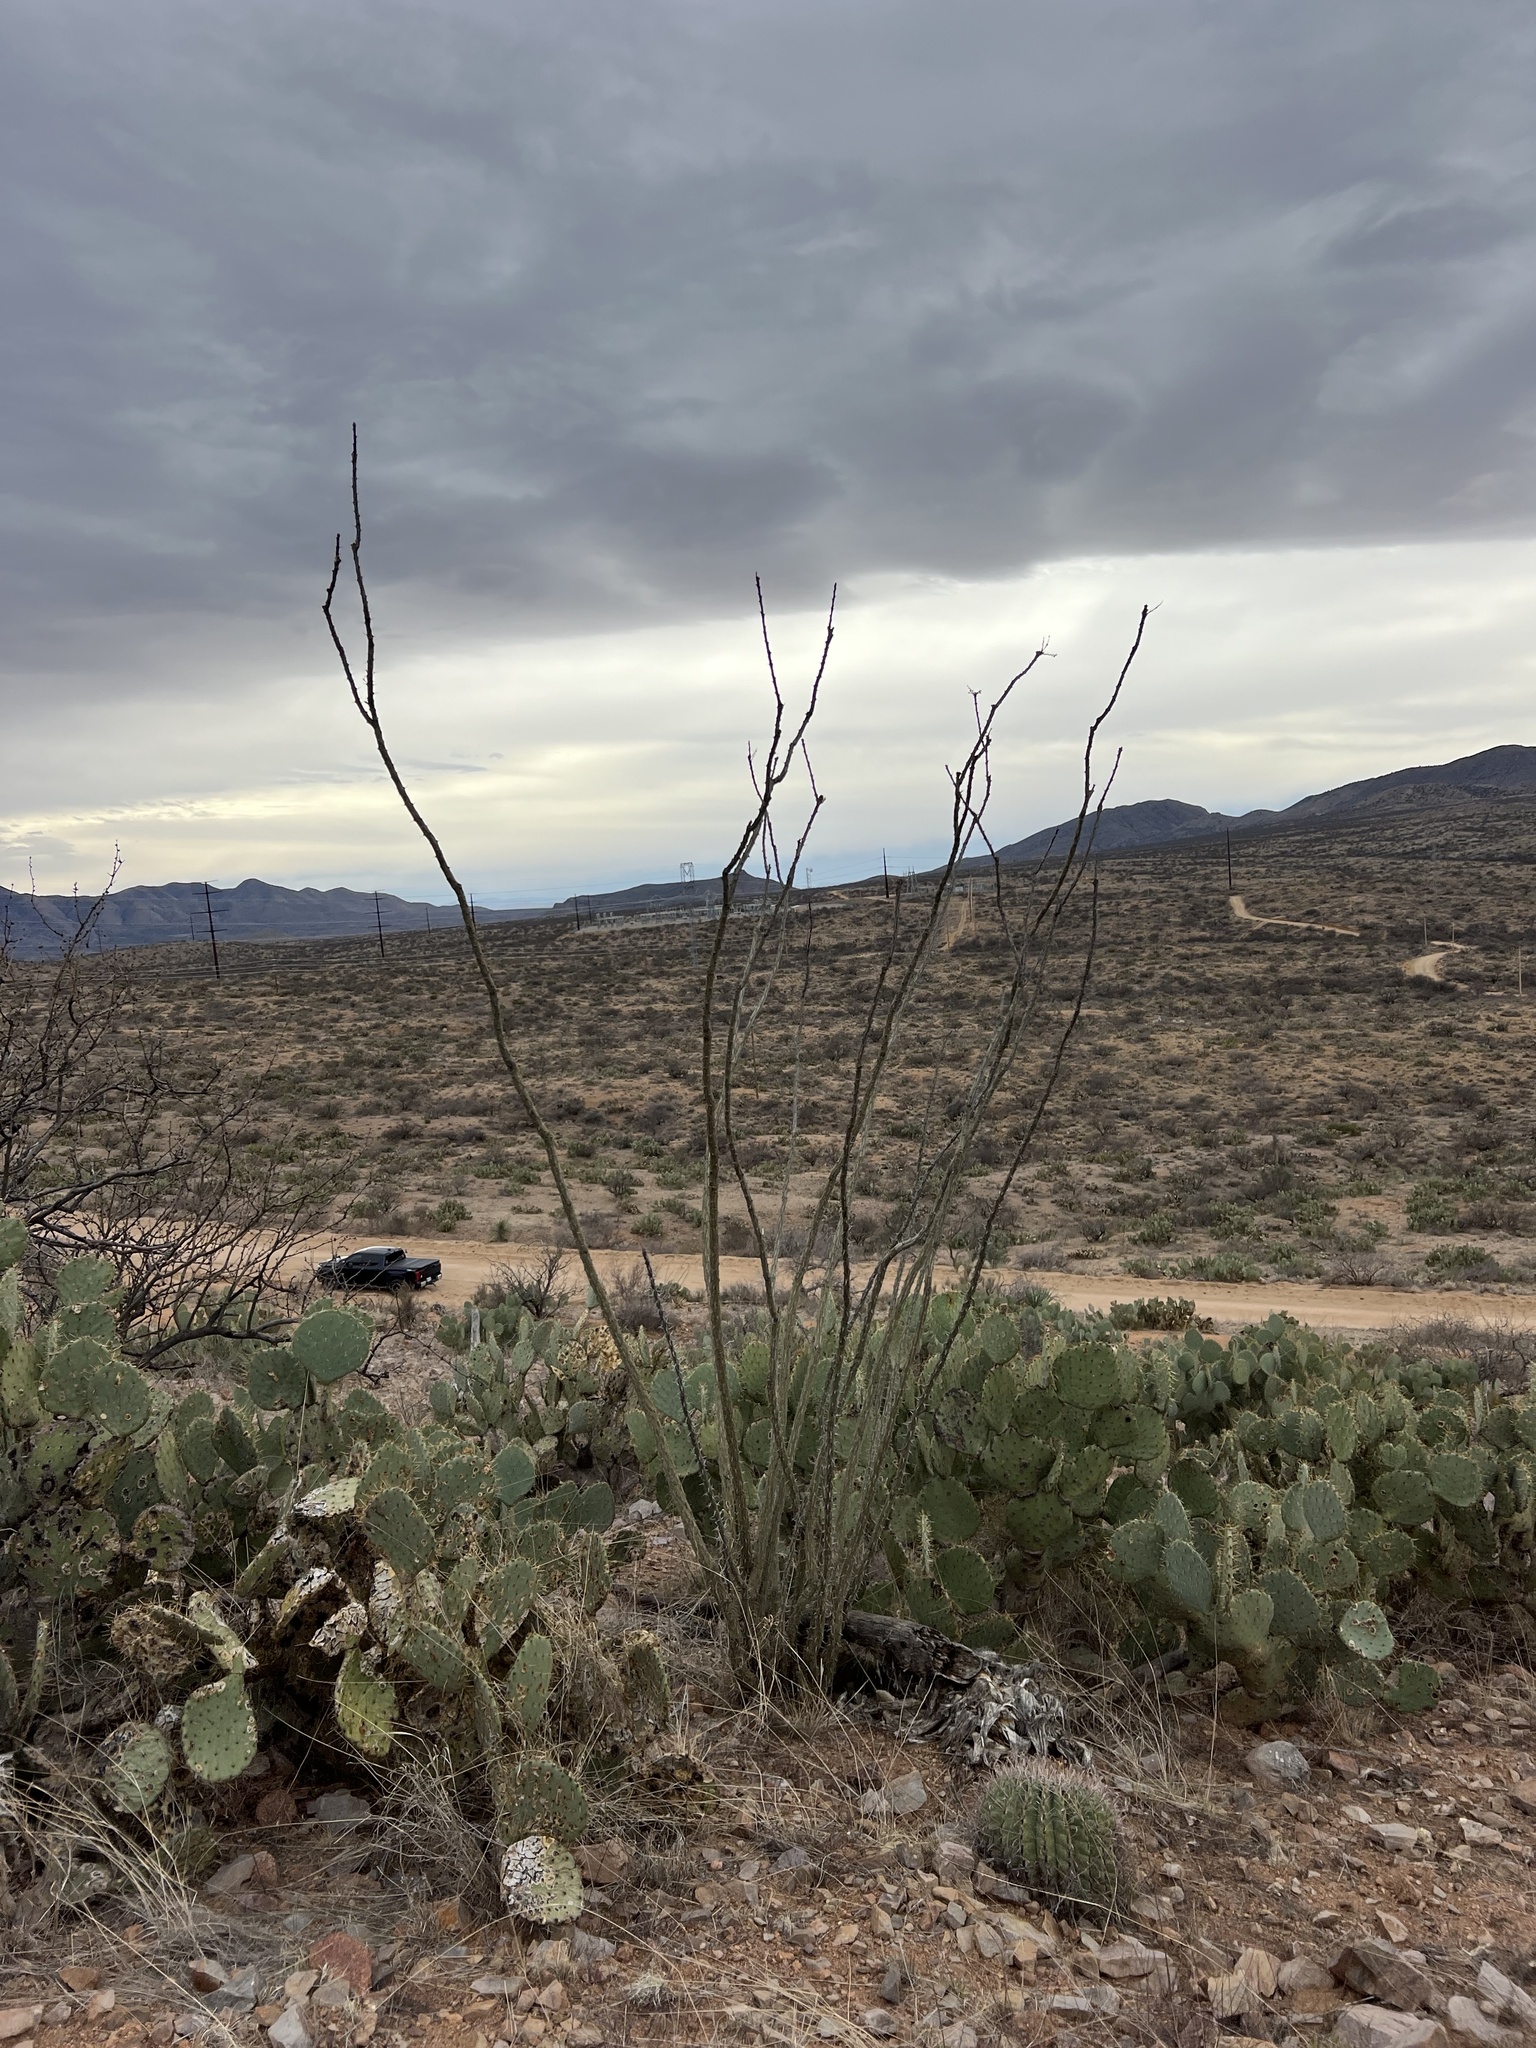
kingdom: Plantae
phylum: Tracheophyta
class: Magnoliopsida
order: Ericales
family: Fouquieriaceae
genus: Fouquieria
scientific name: Fouquieria splendens
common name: Vine-cactus
